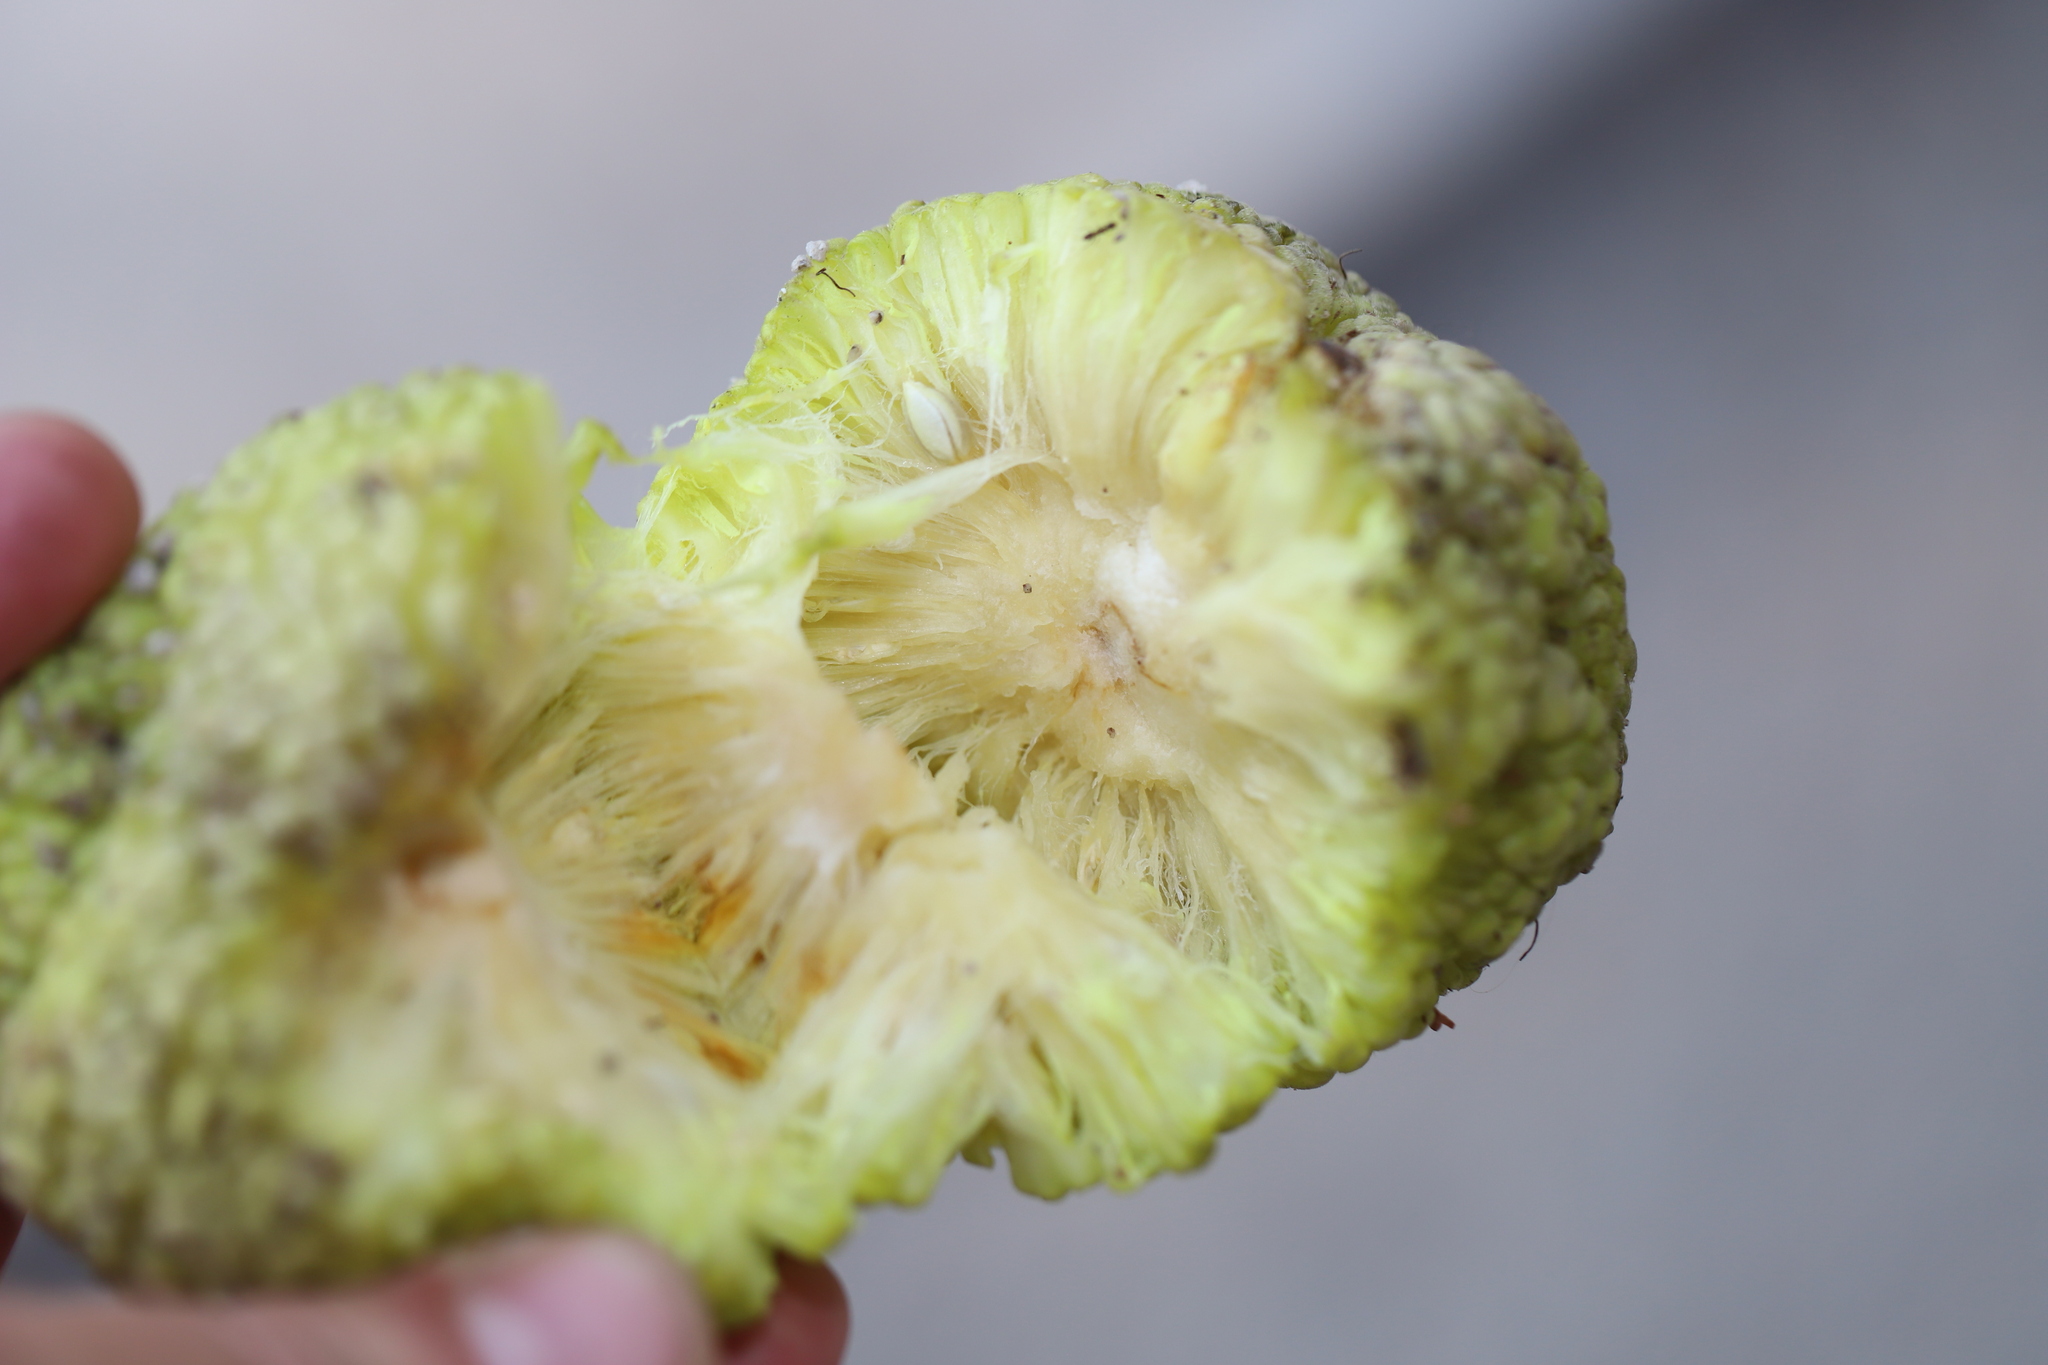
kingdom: Plantae
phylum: Tracheophyta
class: Magnoliopsida
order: Rosales
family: Moraceae
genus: Maclura
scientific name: Maclura pomifera
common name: Osage-orange
